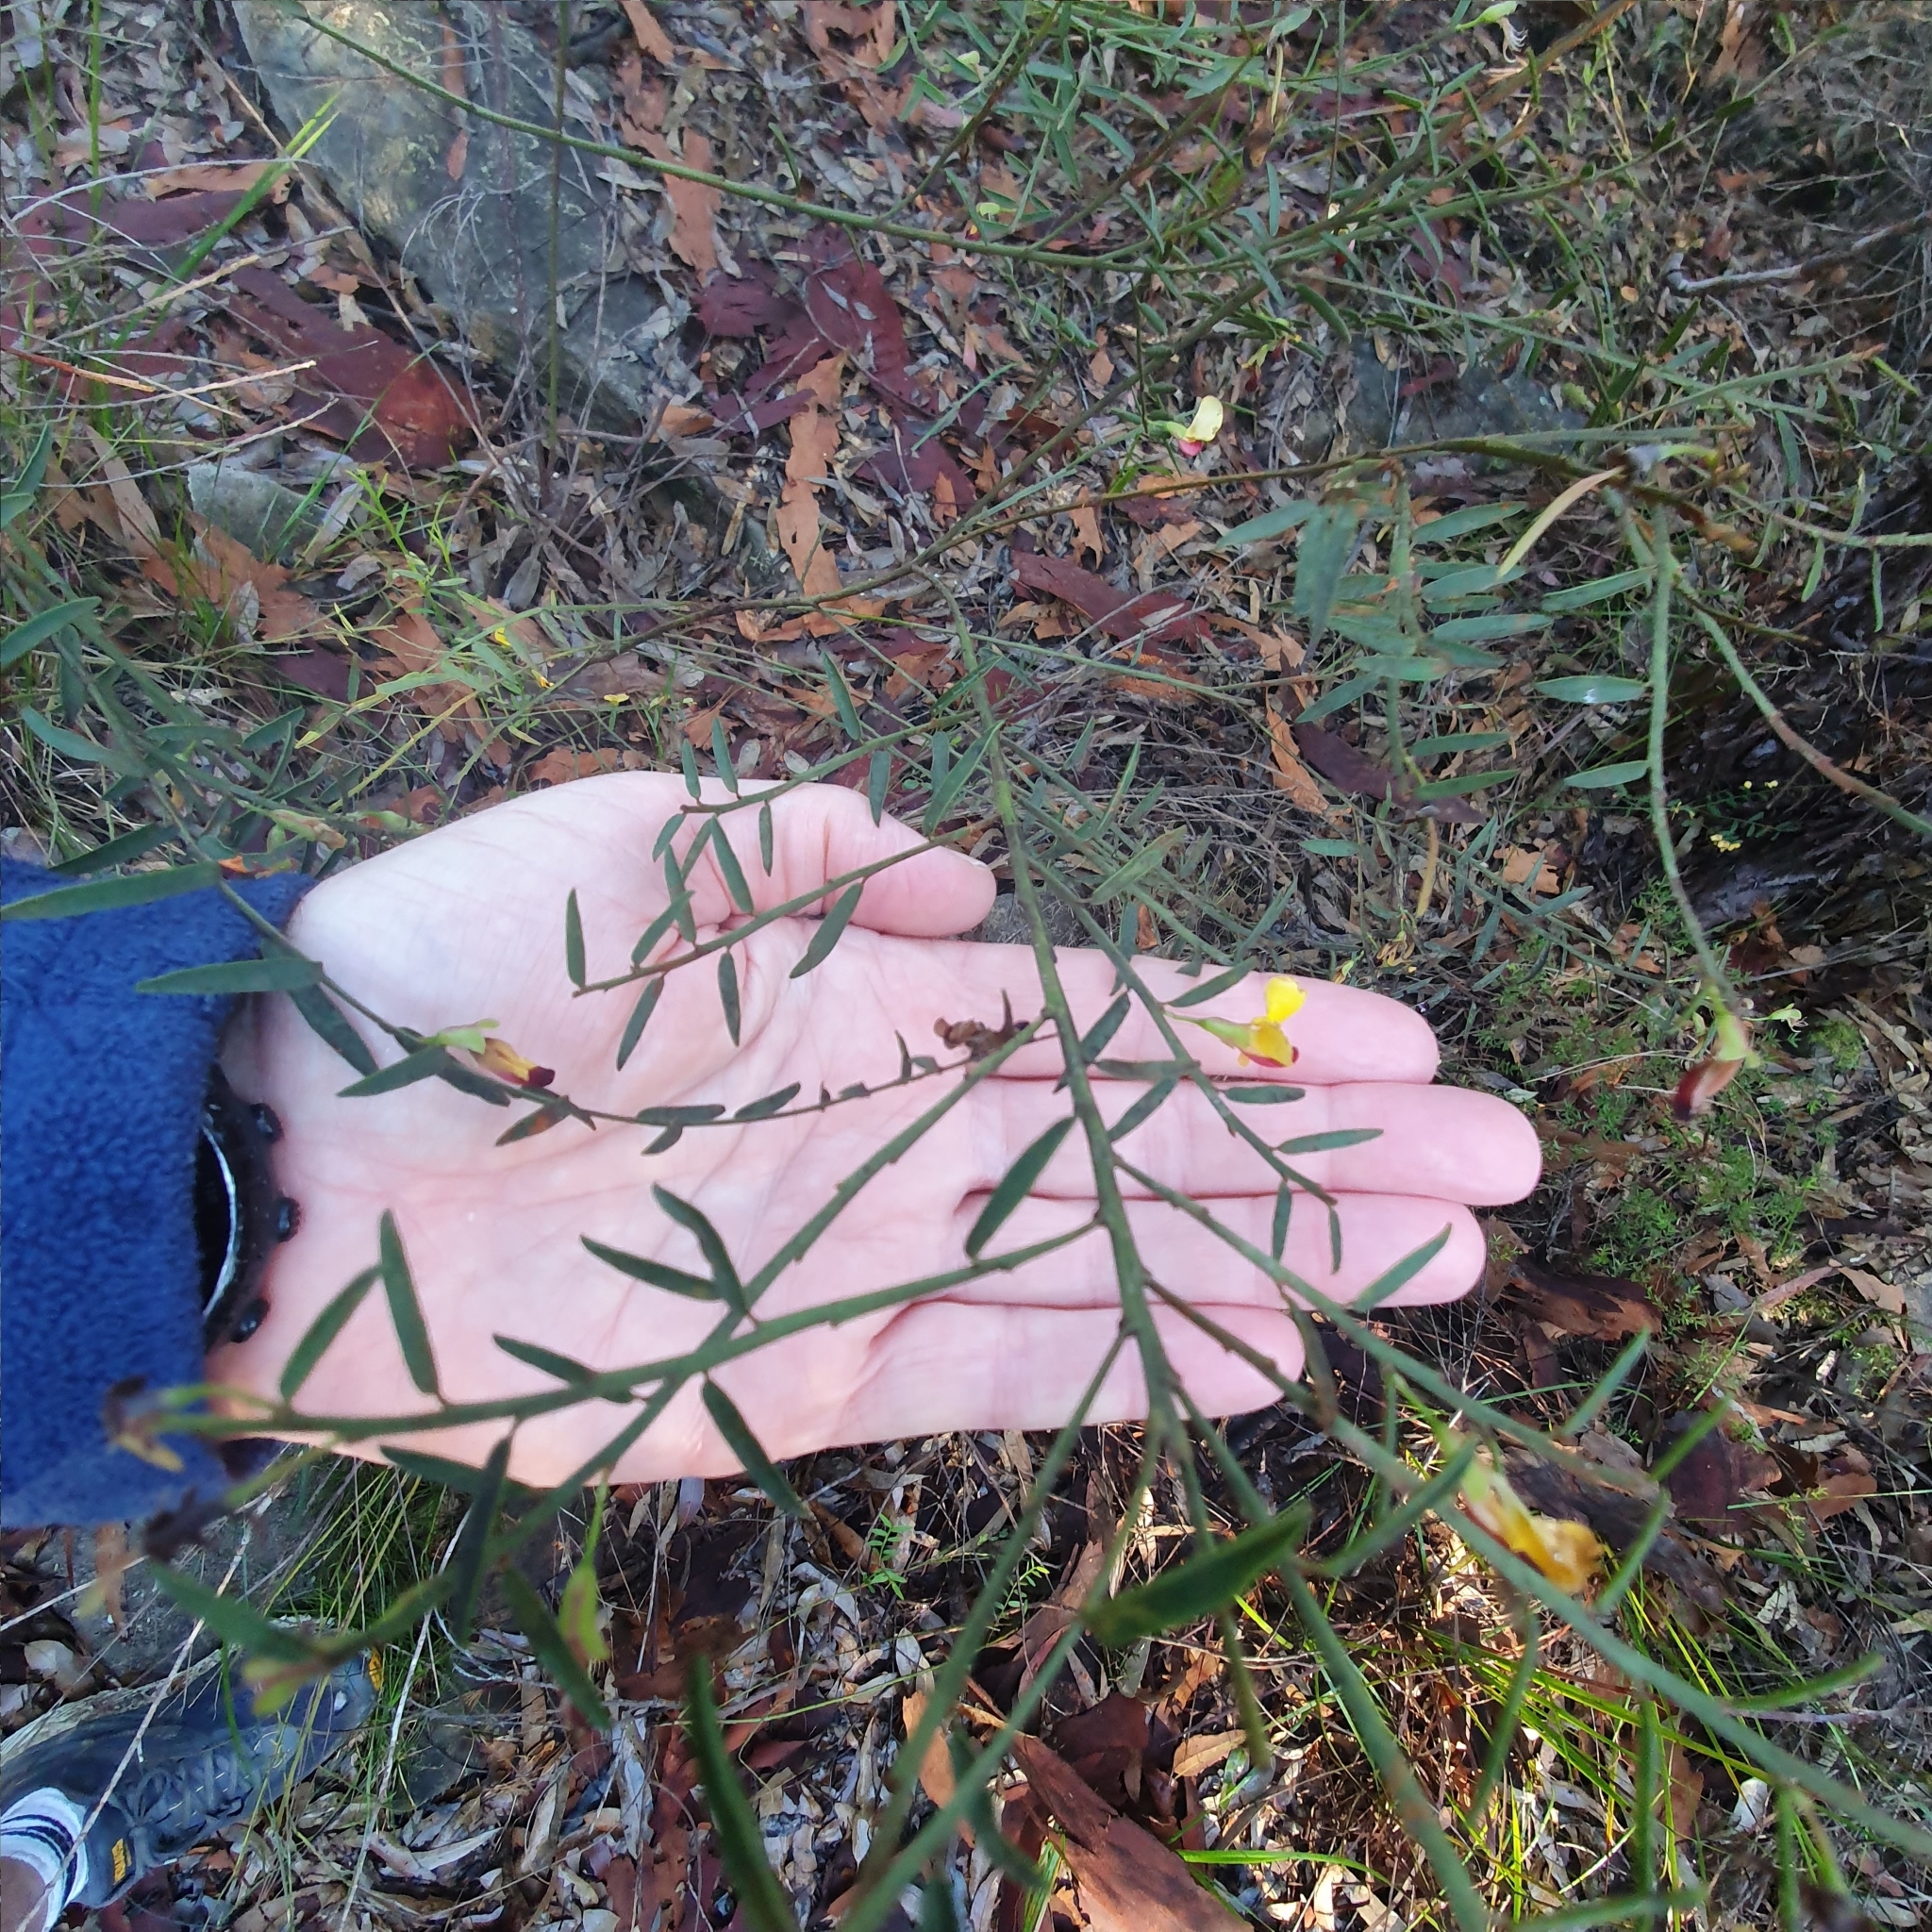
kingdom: Plantae
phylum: Tracheophyta
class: Magnoliopsida
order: Fabales
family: Fabaceae
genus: Bossiaea
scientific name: Bossiaea heterophylla
